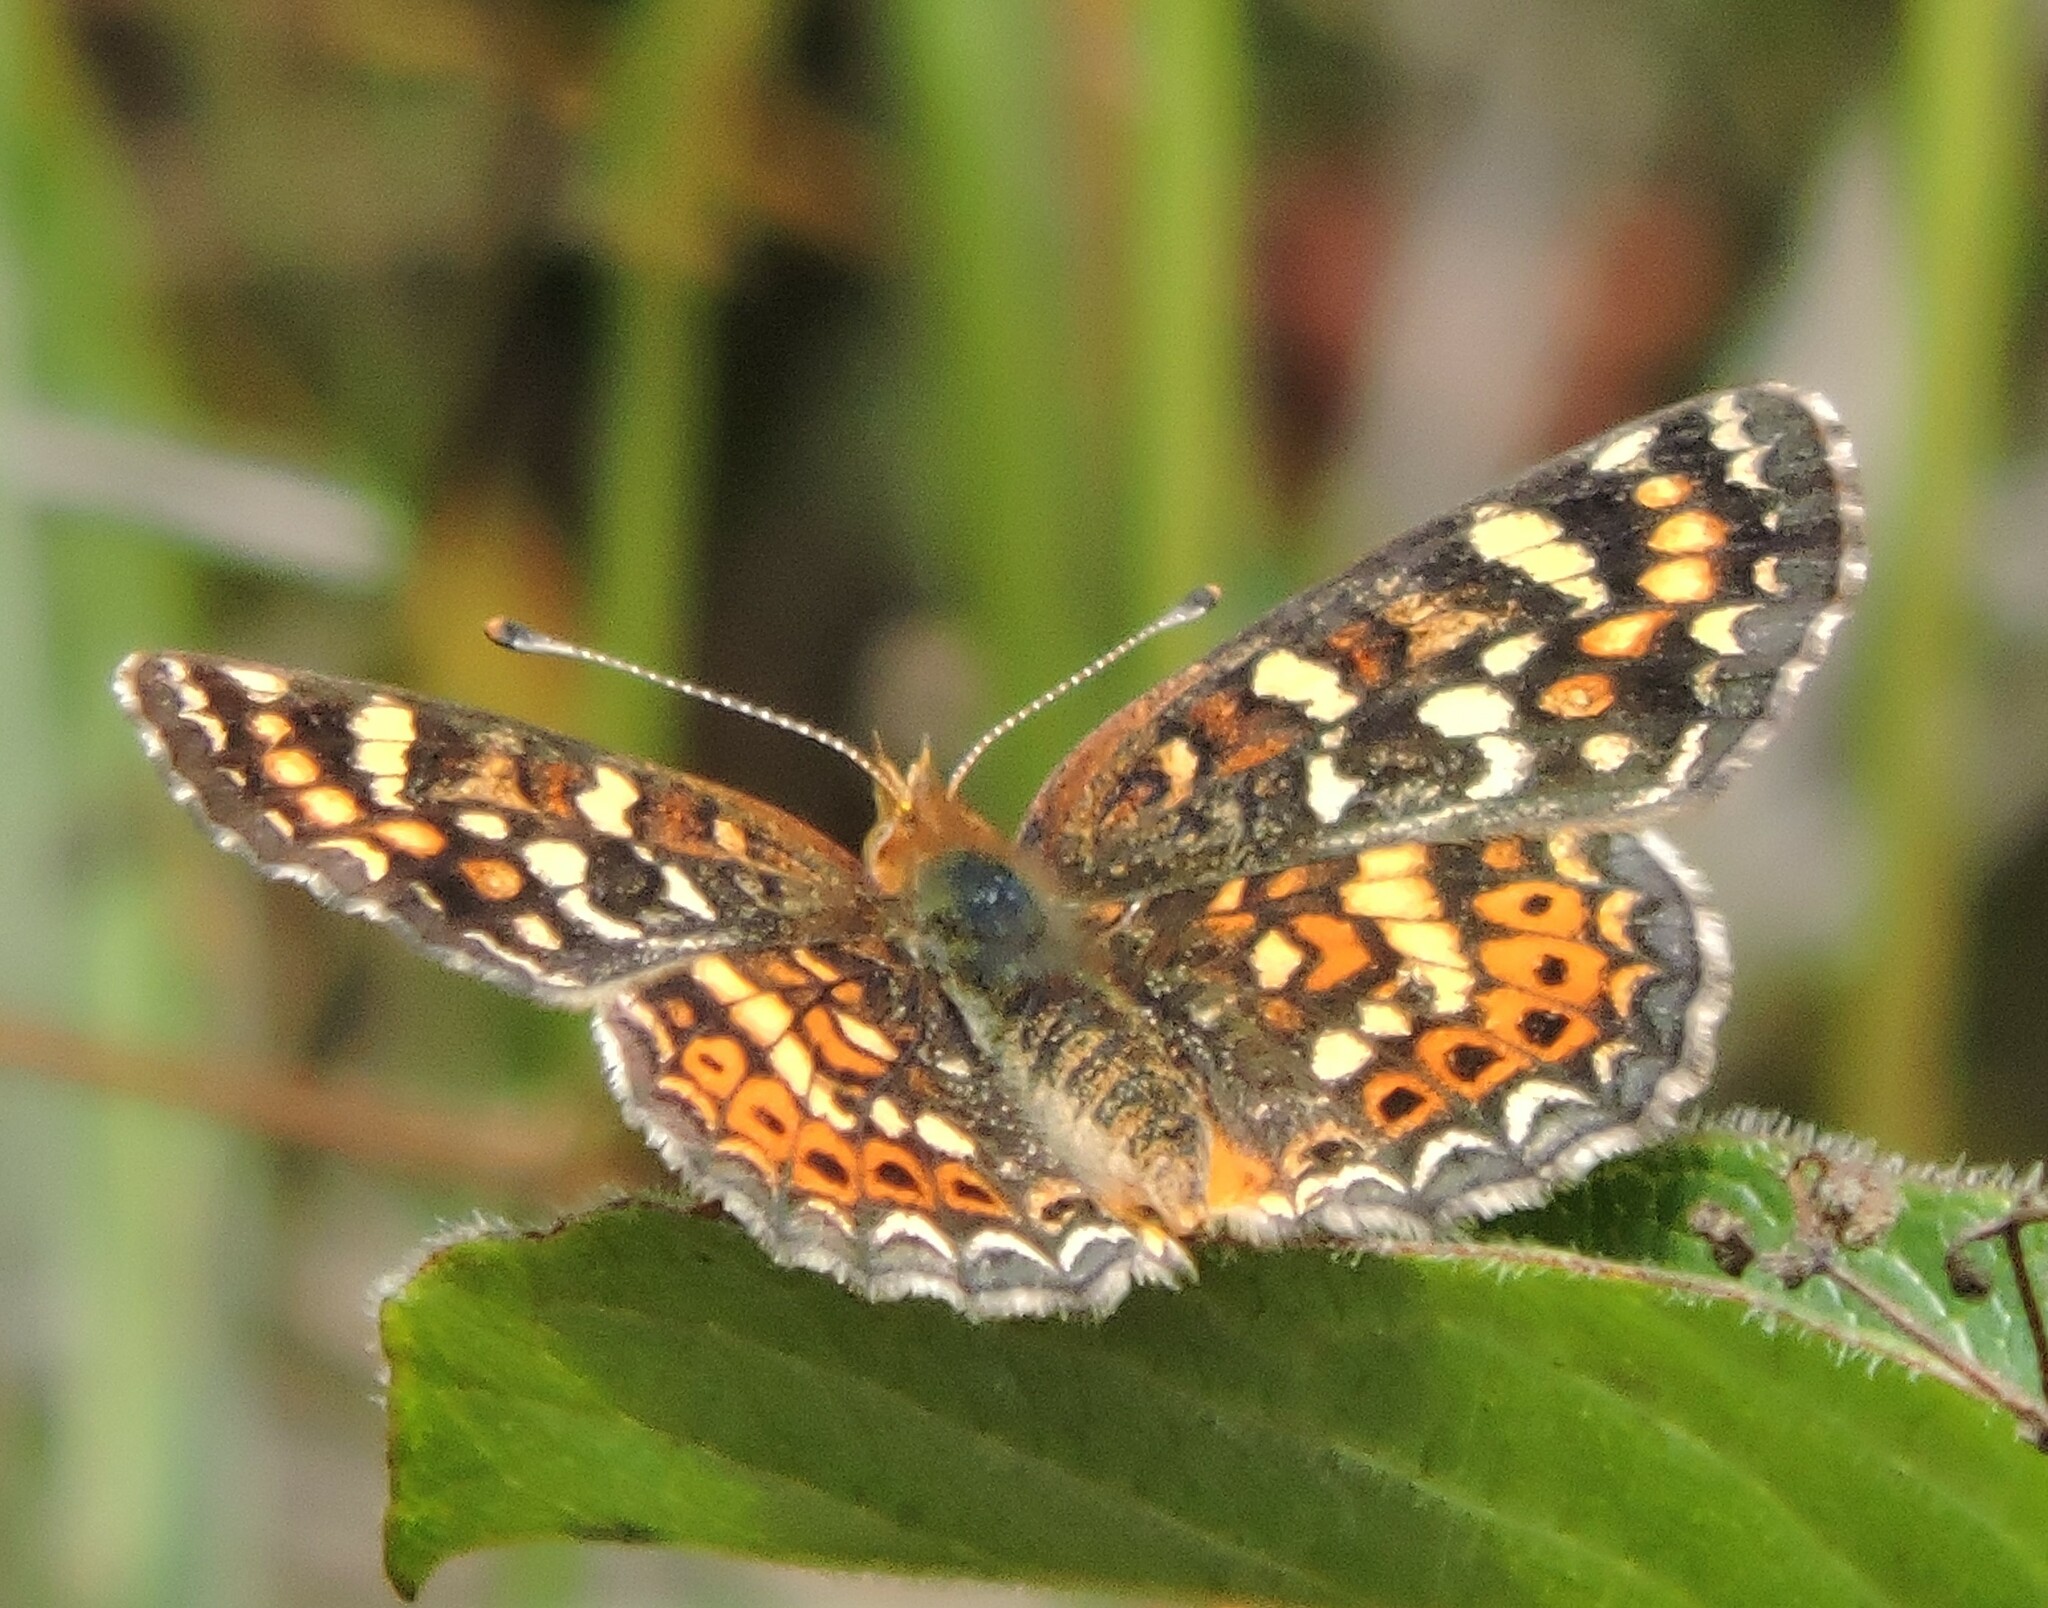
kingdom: Animalia
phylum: Arthropoda
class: Insecta
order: Lepidoptera
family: Nymphalidae
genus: Phyciodes
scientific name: Phyciodes tharos
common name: Pearl crescent
